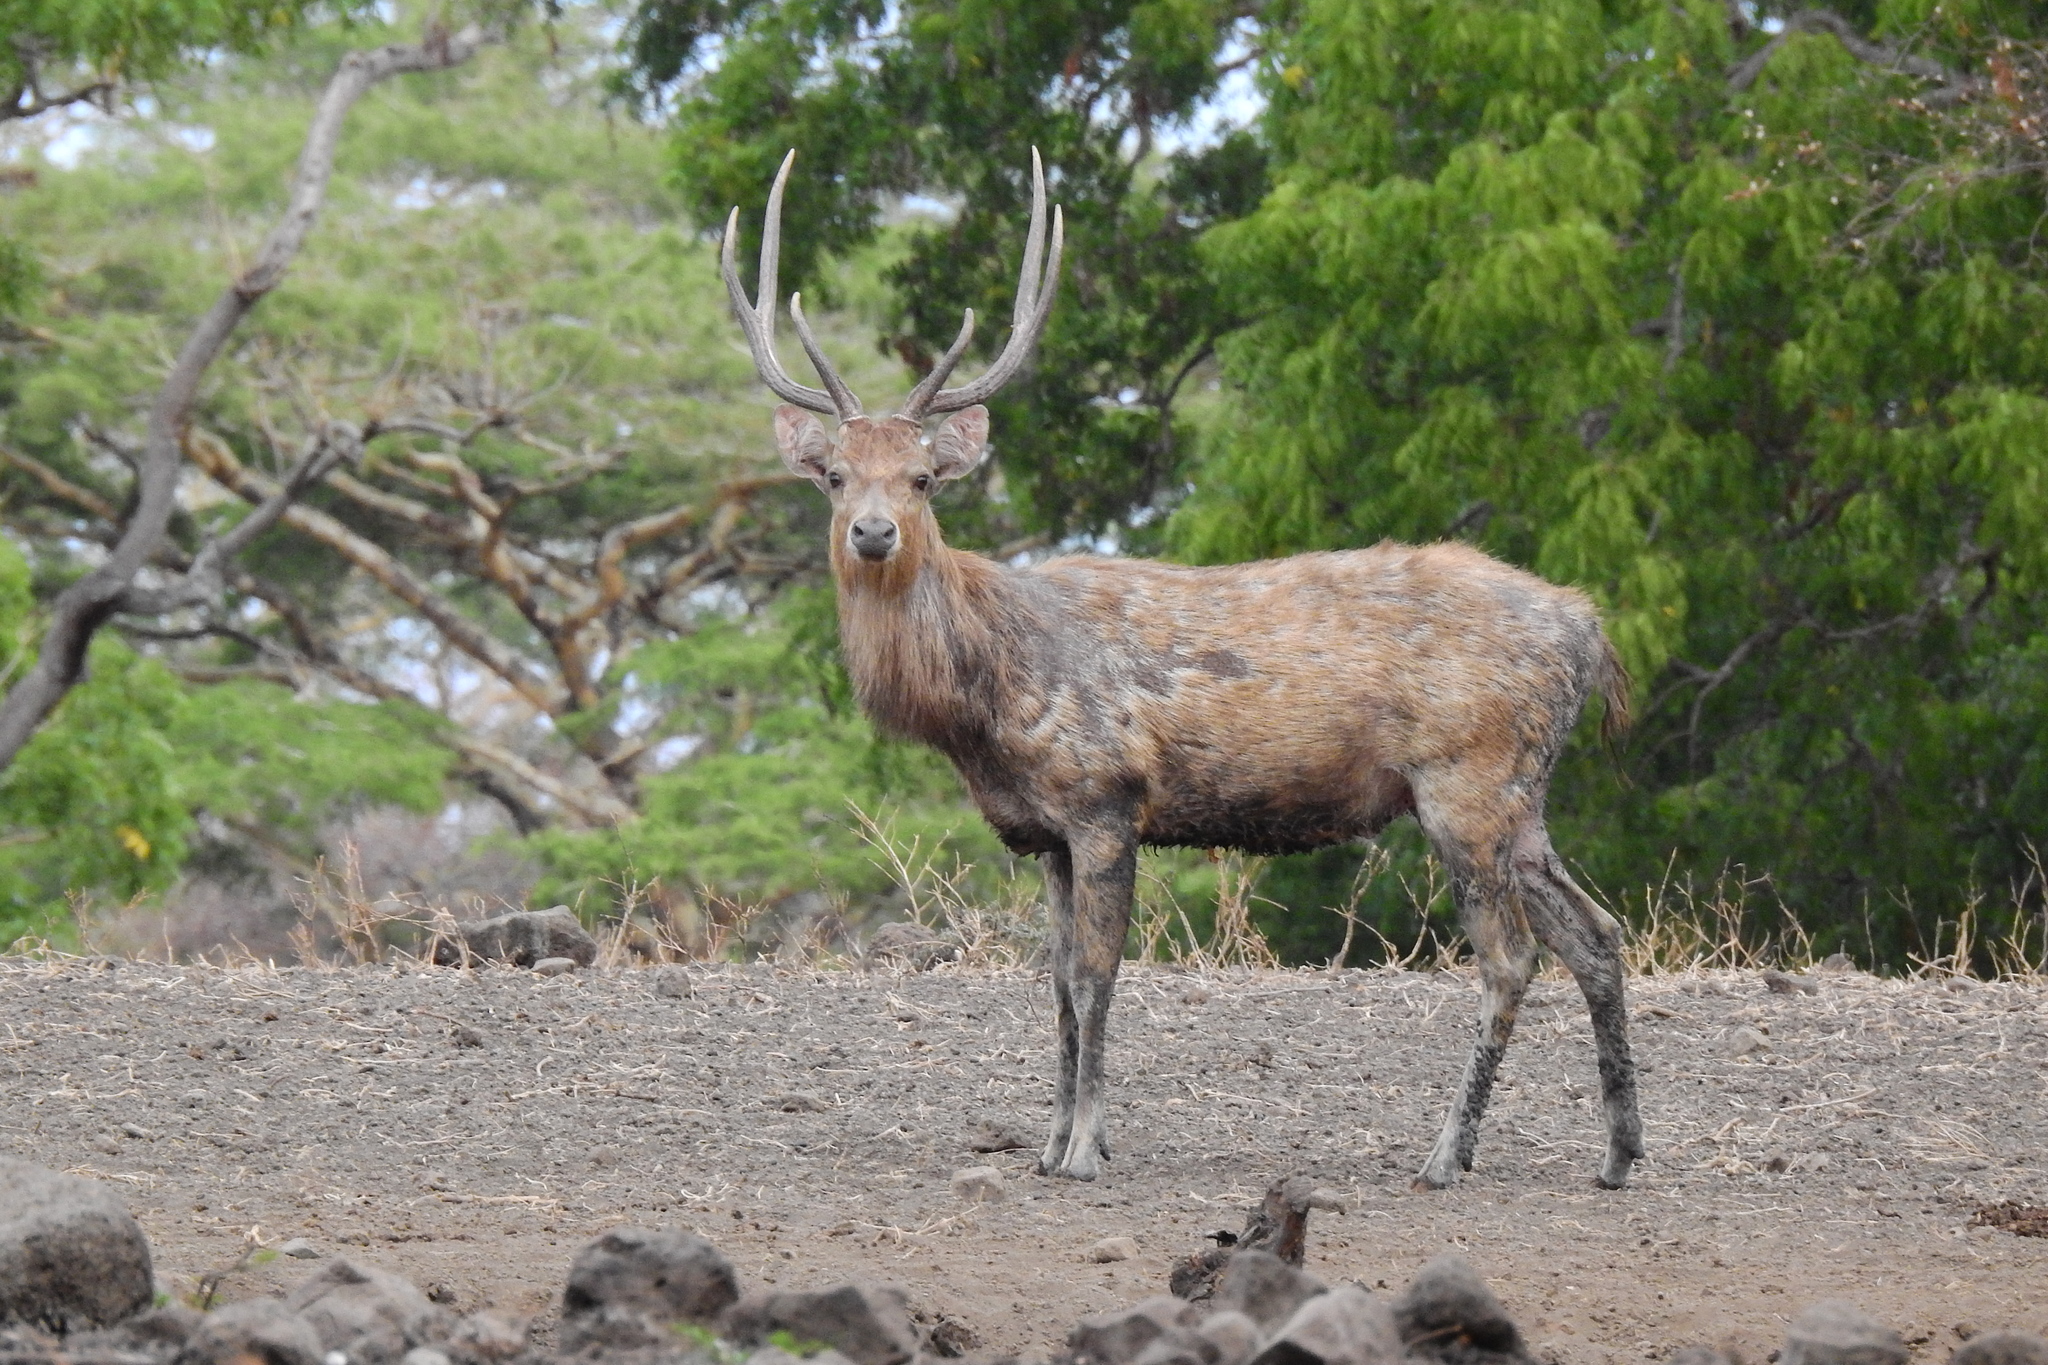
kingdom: Animalia
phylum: Chordata
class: Mammalia
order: Artiodactyla
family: Cervidae
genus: Rusa
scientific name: Rusa timorensis
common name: Javan rusa
